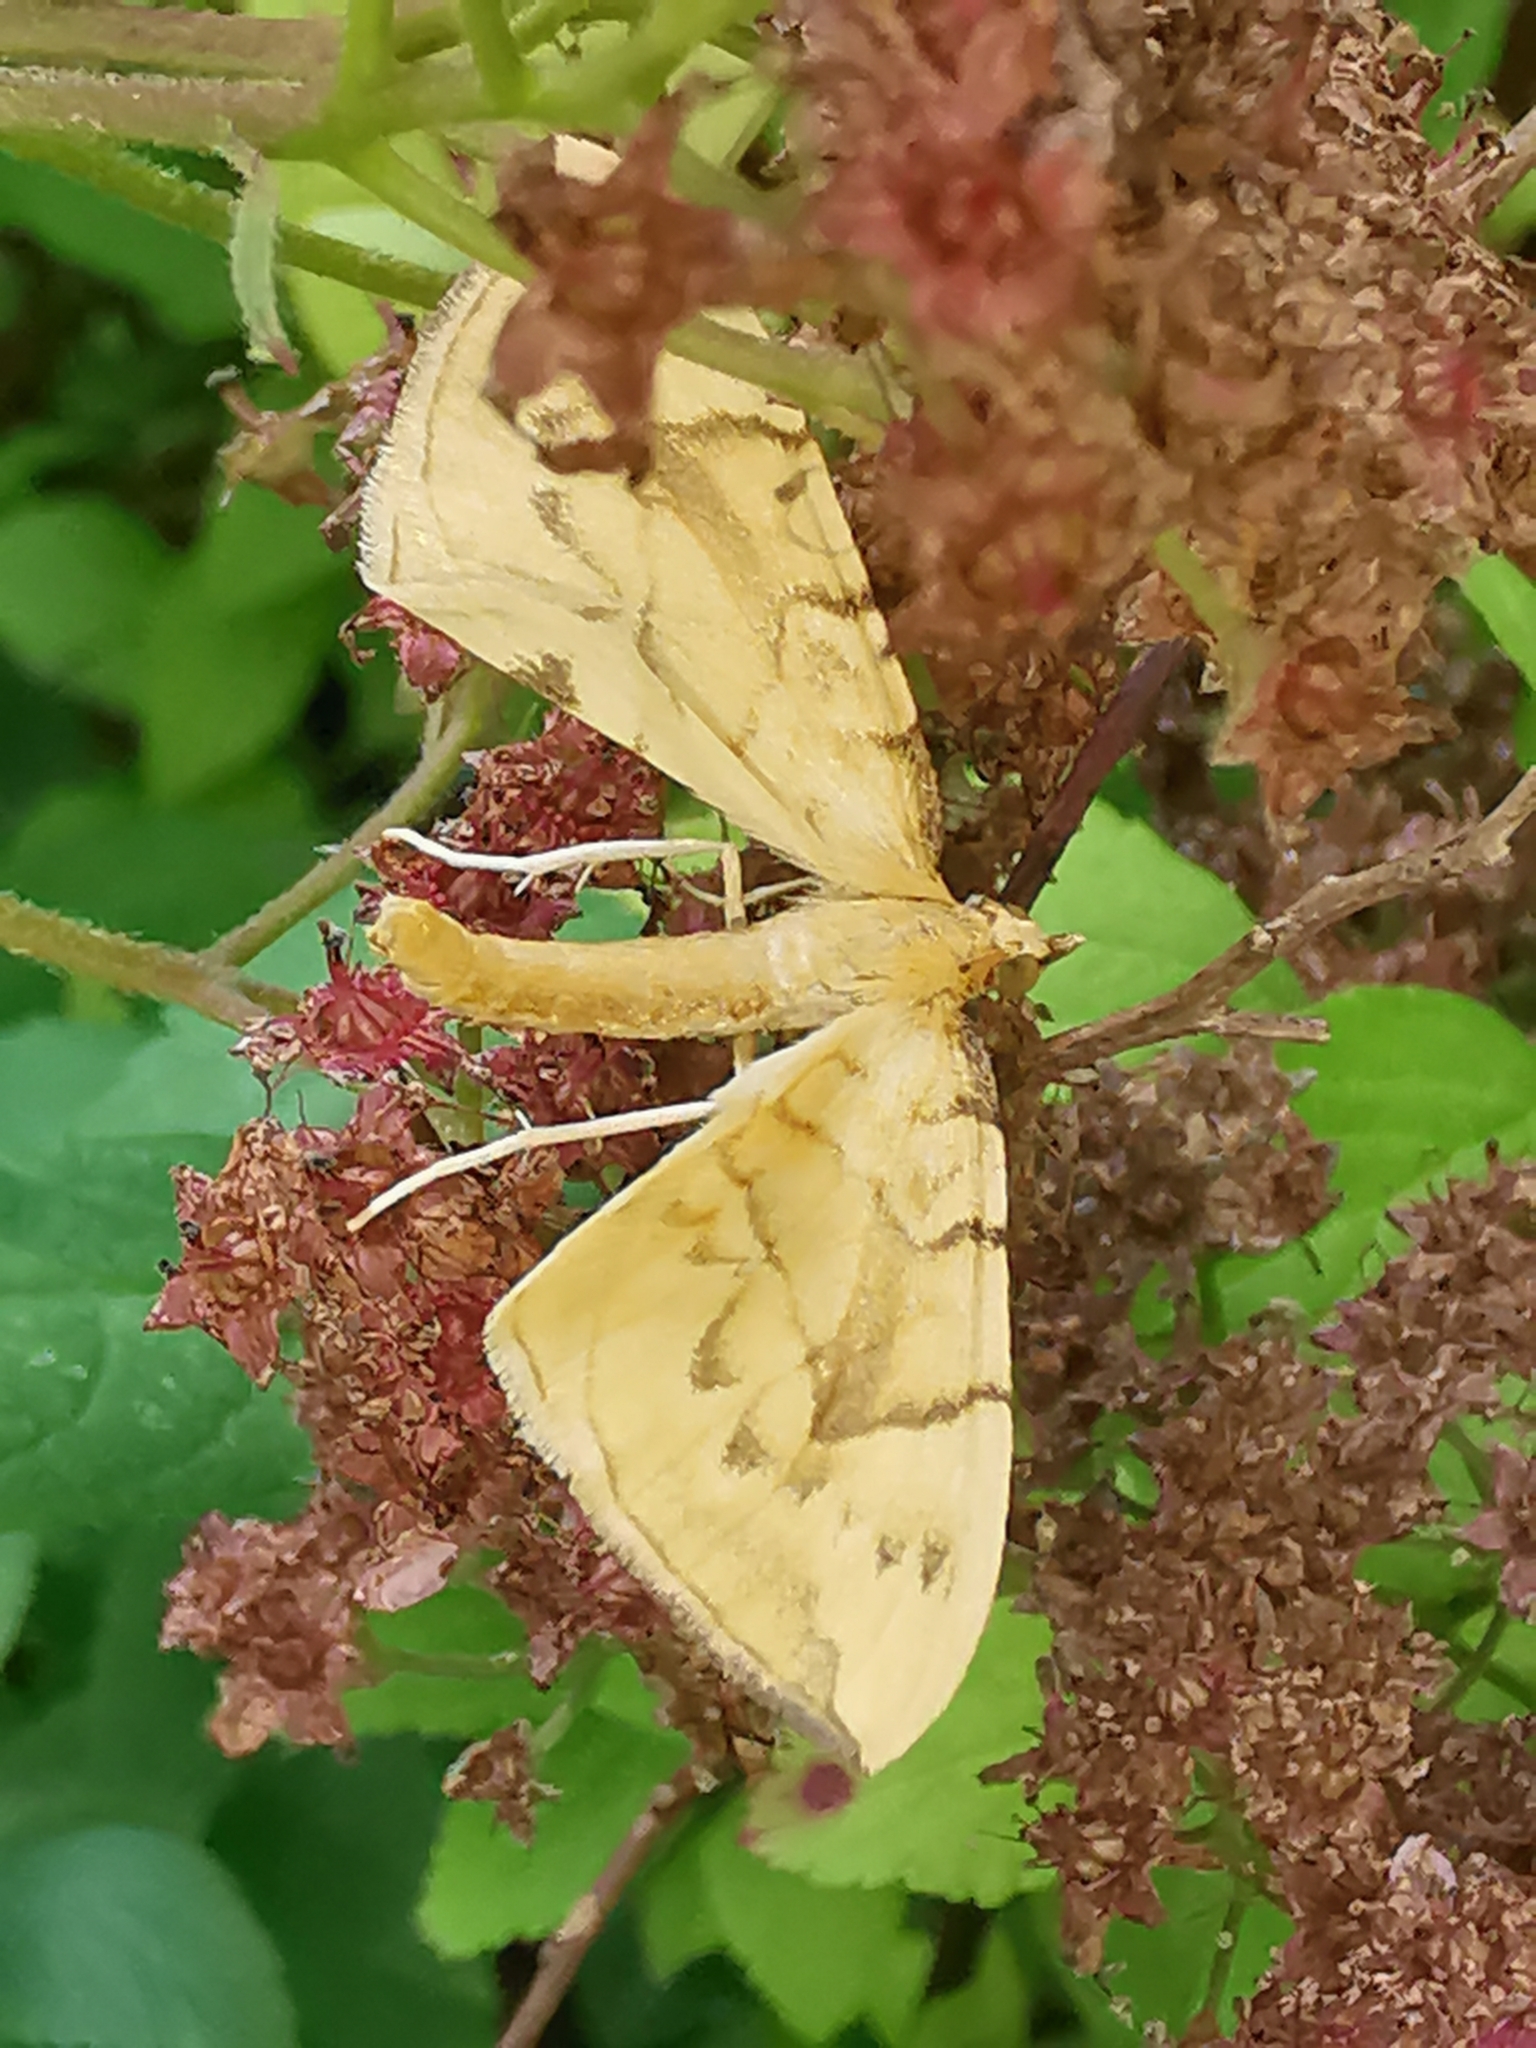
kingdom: Animalia
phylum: Arthropoda
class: Insecta
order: Lepidoptera
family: Geometridae
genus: Eulithis
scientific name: Eulithis pyraliata
